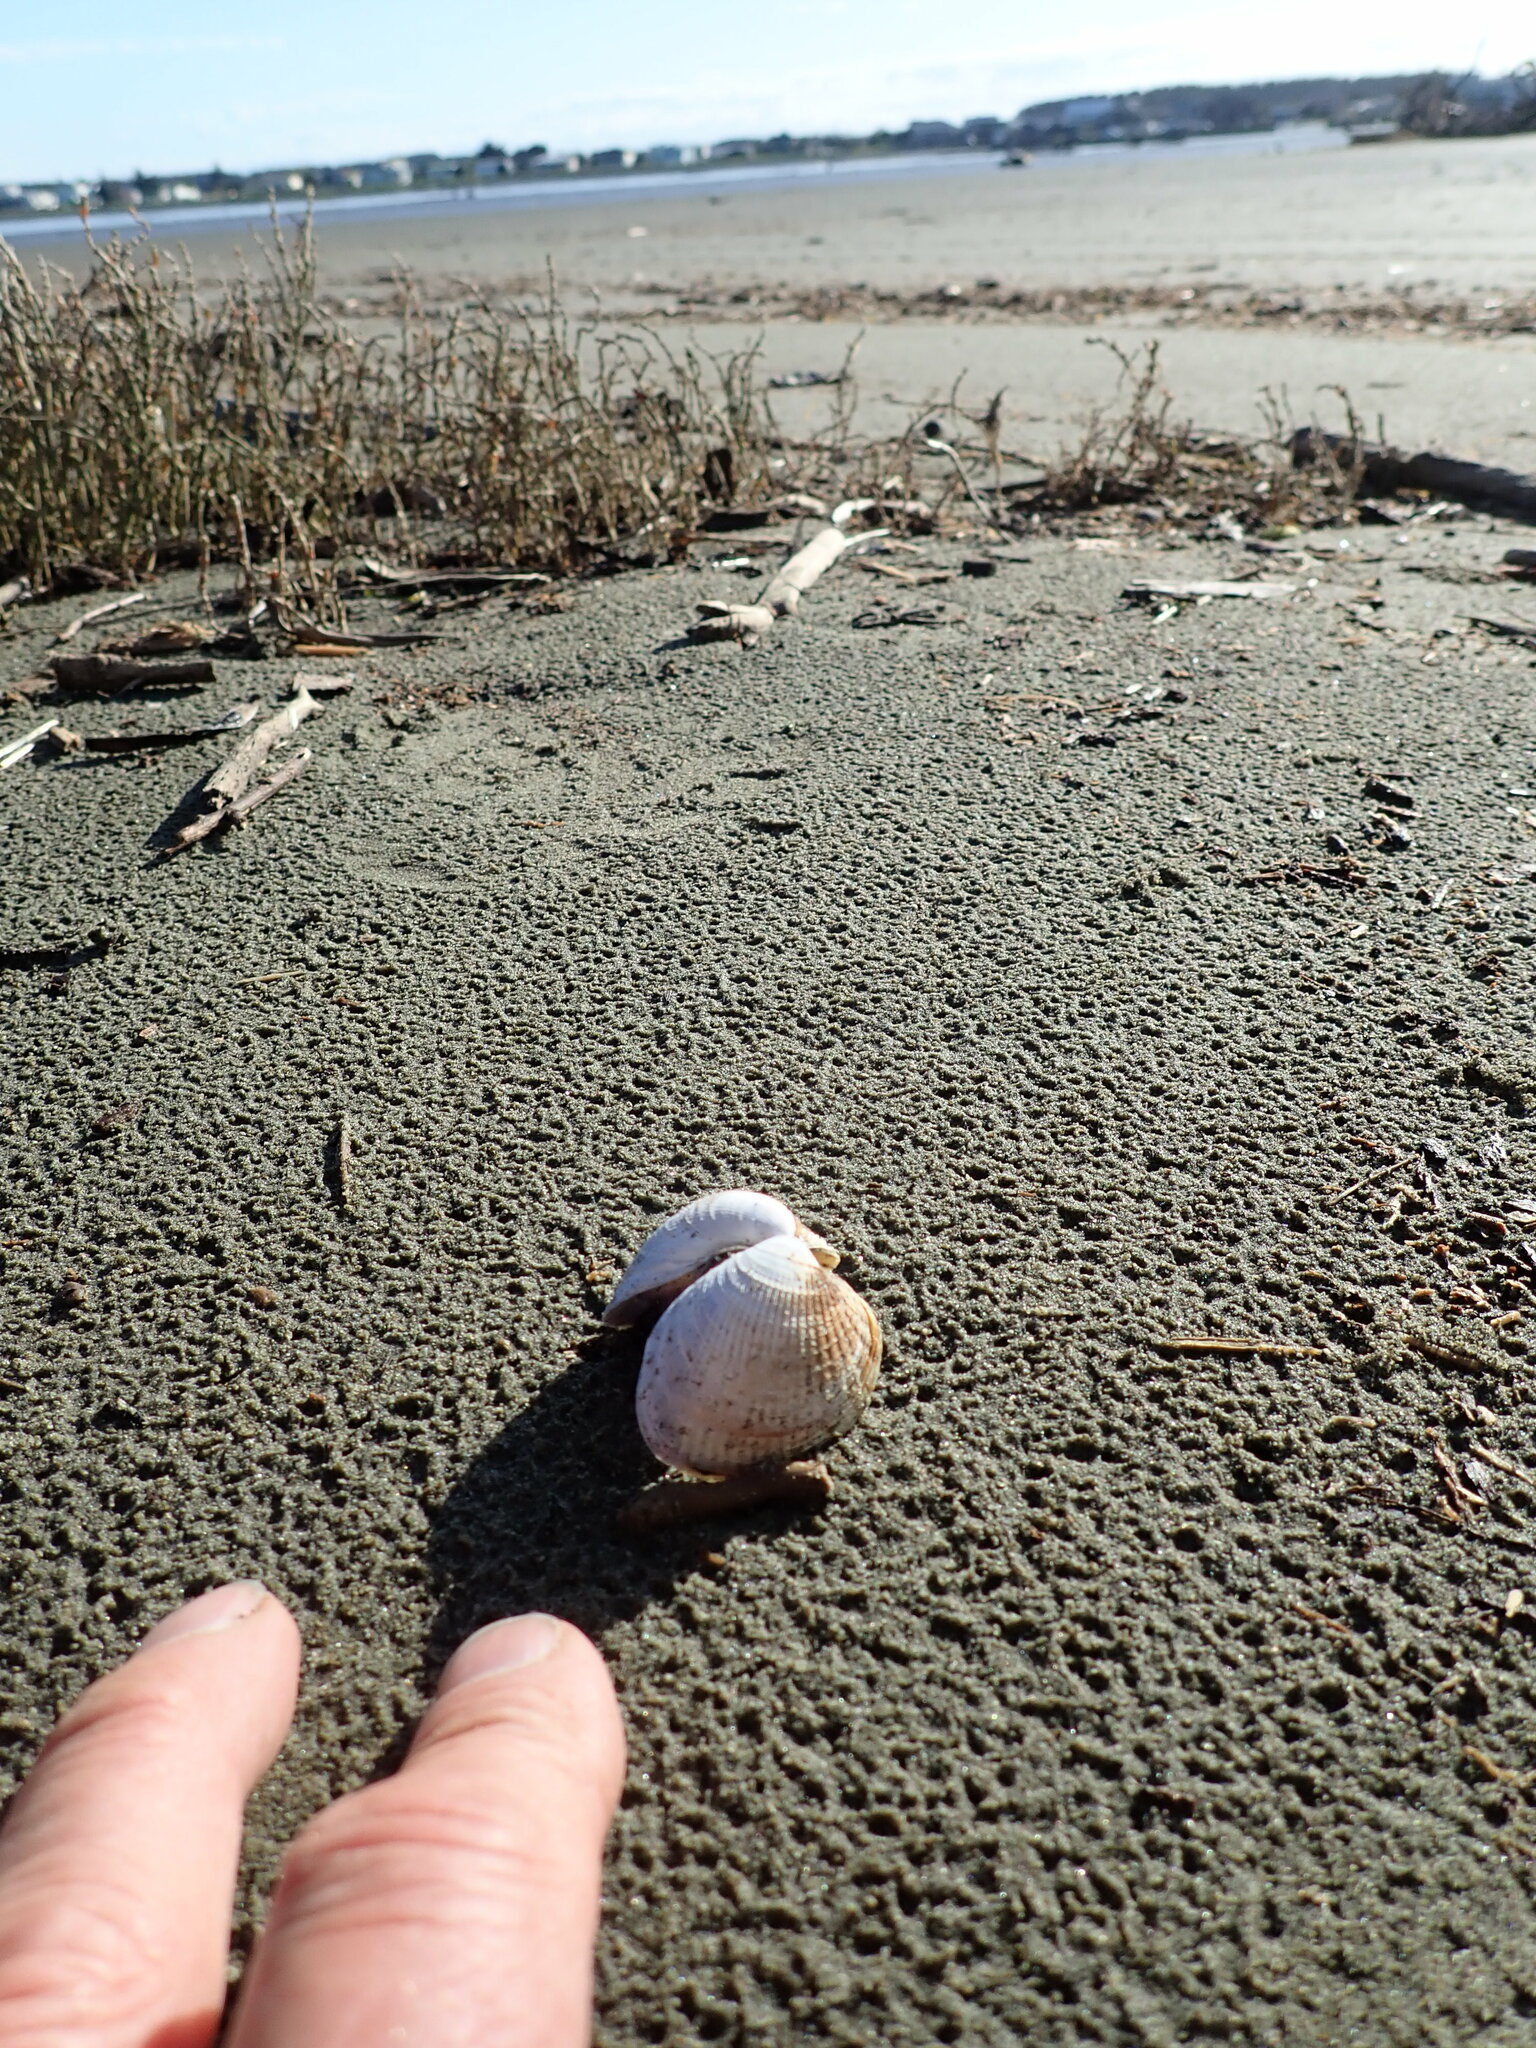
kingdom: Animalia
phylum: Mollusca
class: Bivalvia
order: Venerida
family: Veneridae
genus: Austrovenus
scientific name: Austrovenus stutchburyi
